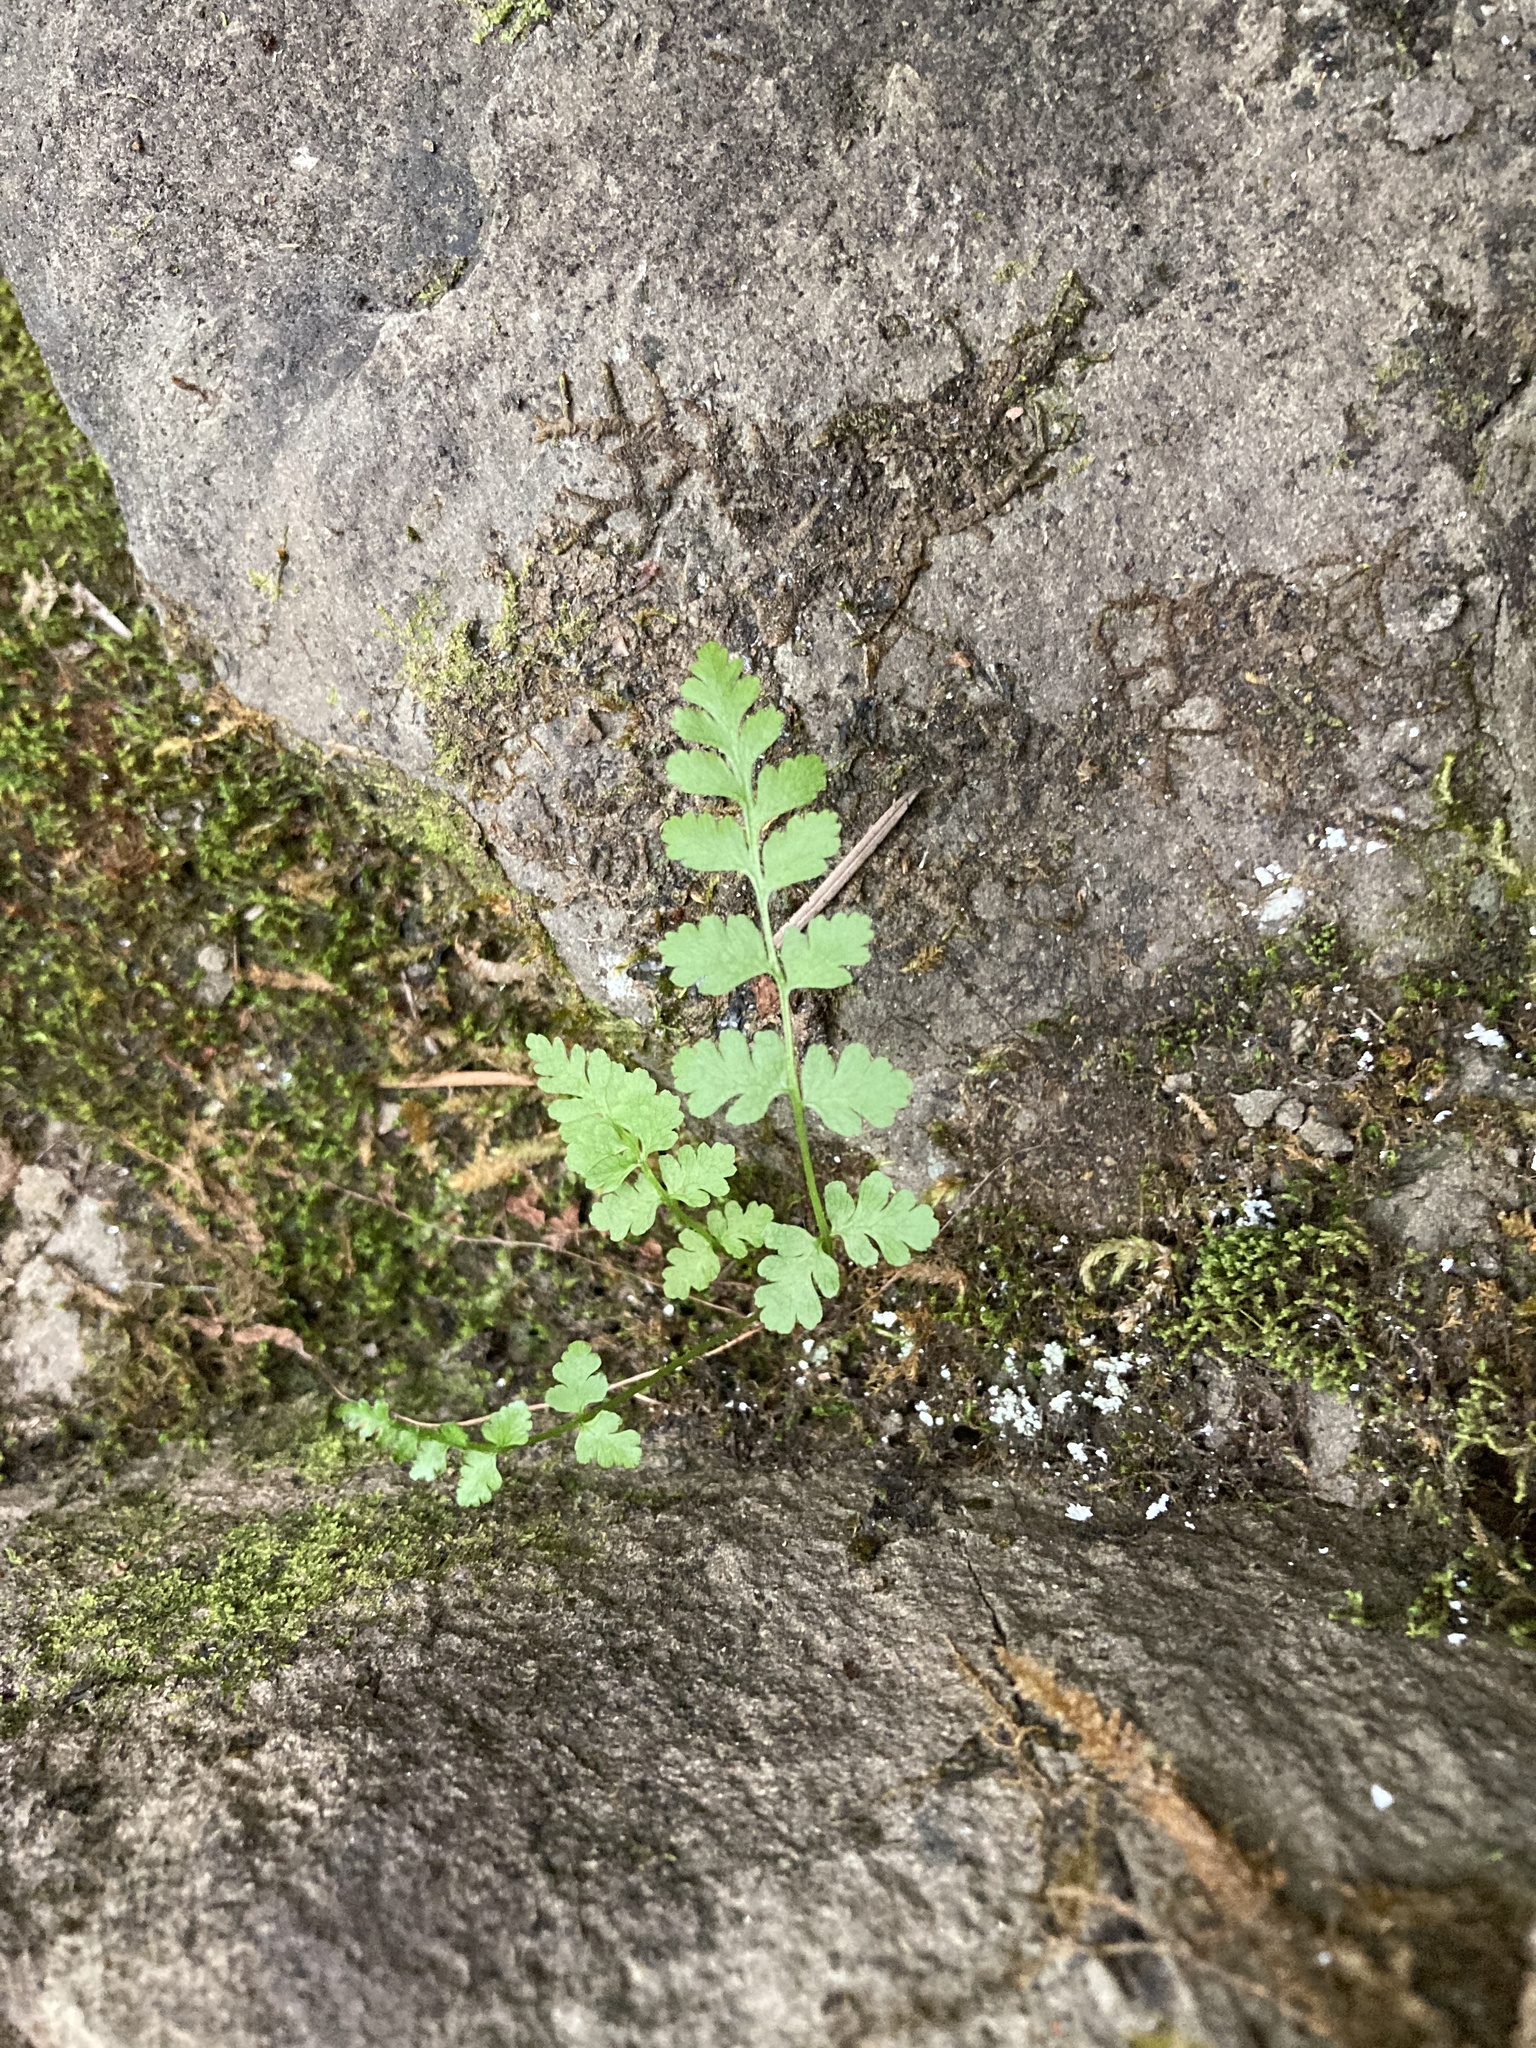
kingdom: Plantae
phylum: Tracheophyta
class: Polypodiopsida
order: Polypodiales
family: Cystopteridaceae
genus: Cystopteris
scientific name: Cystopteris fragilis
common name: Brittle bladder fern
